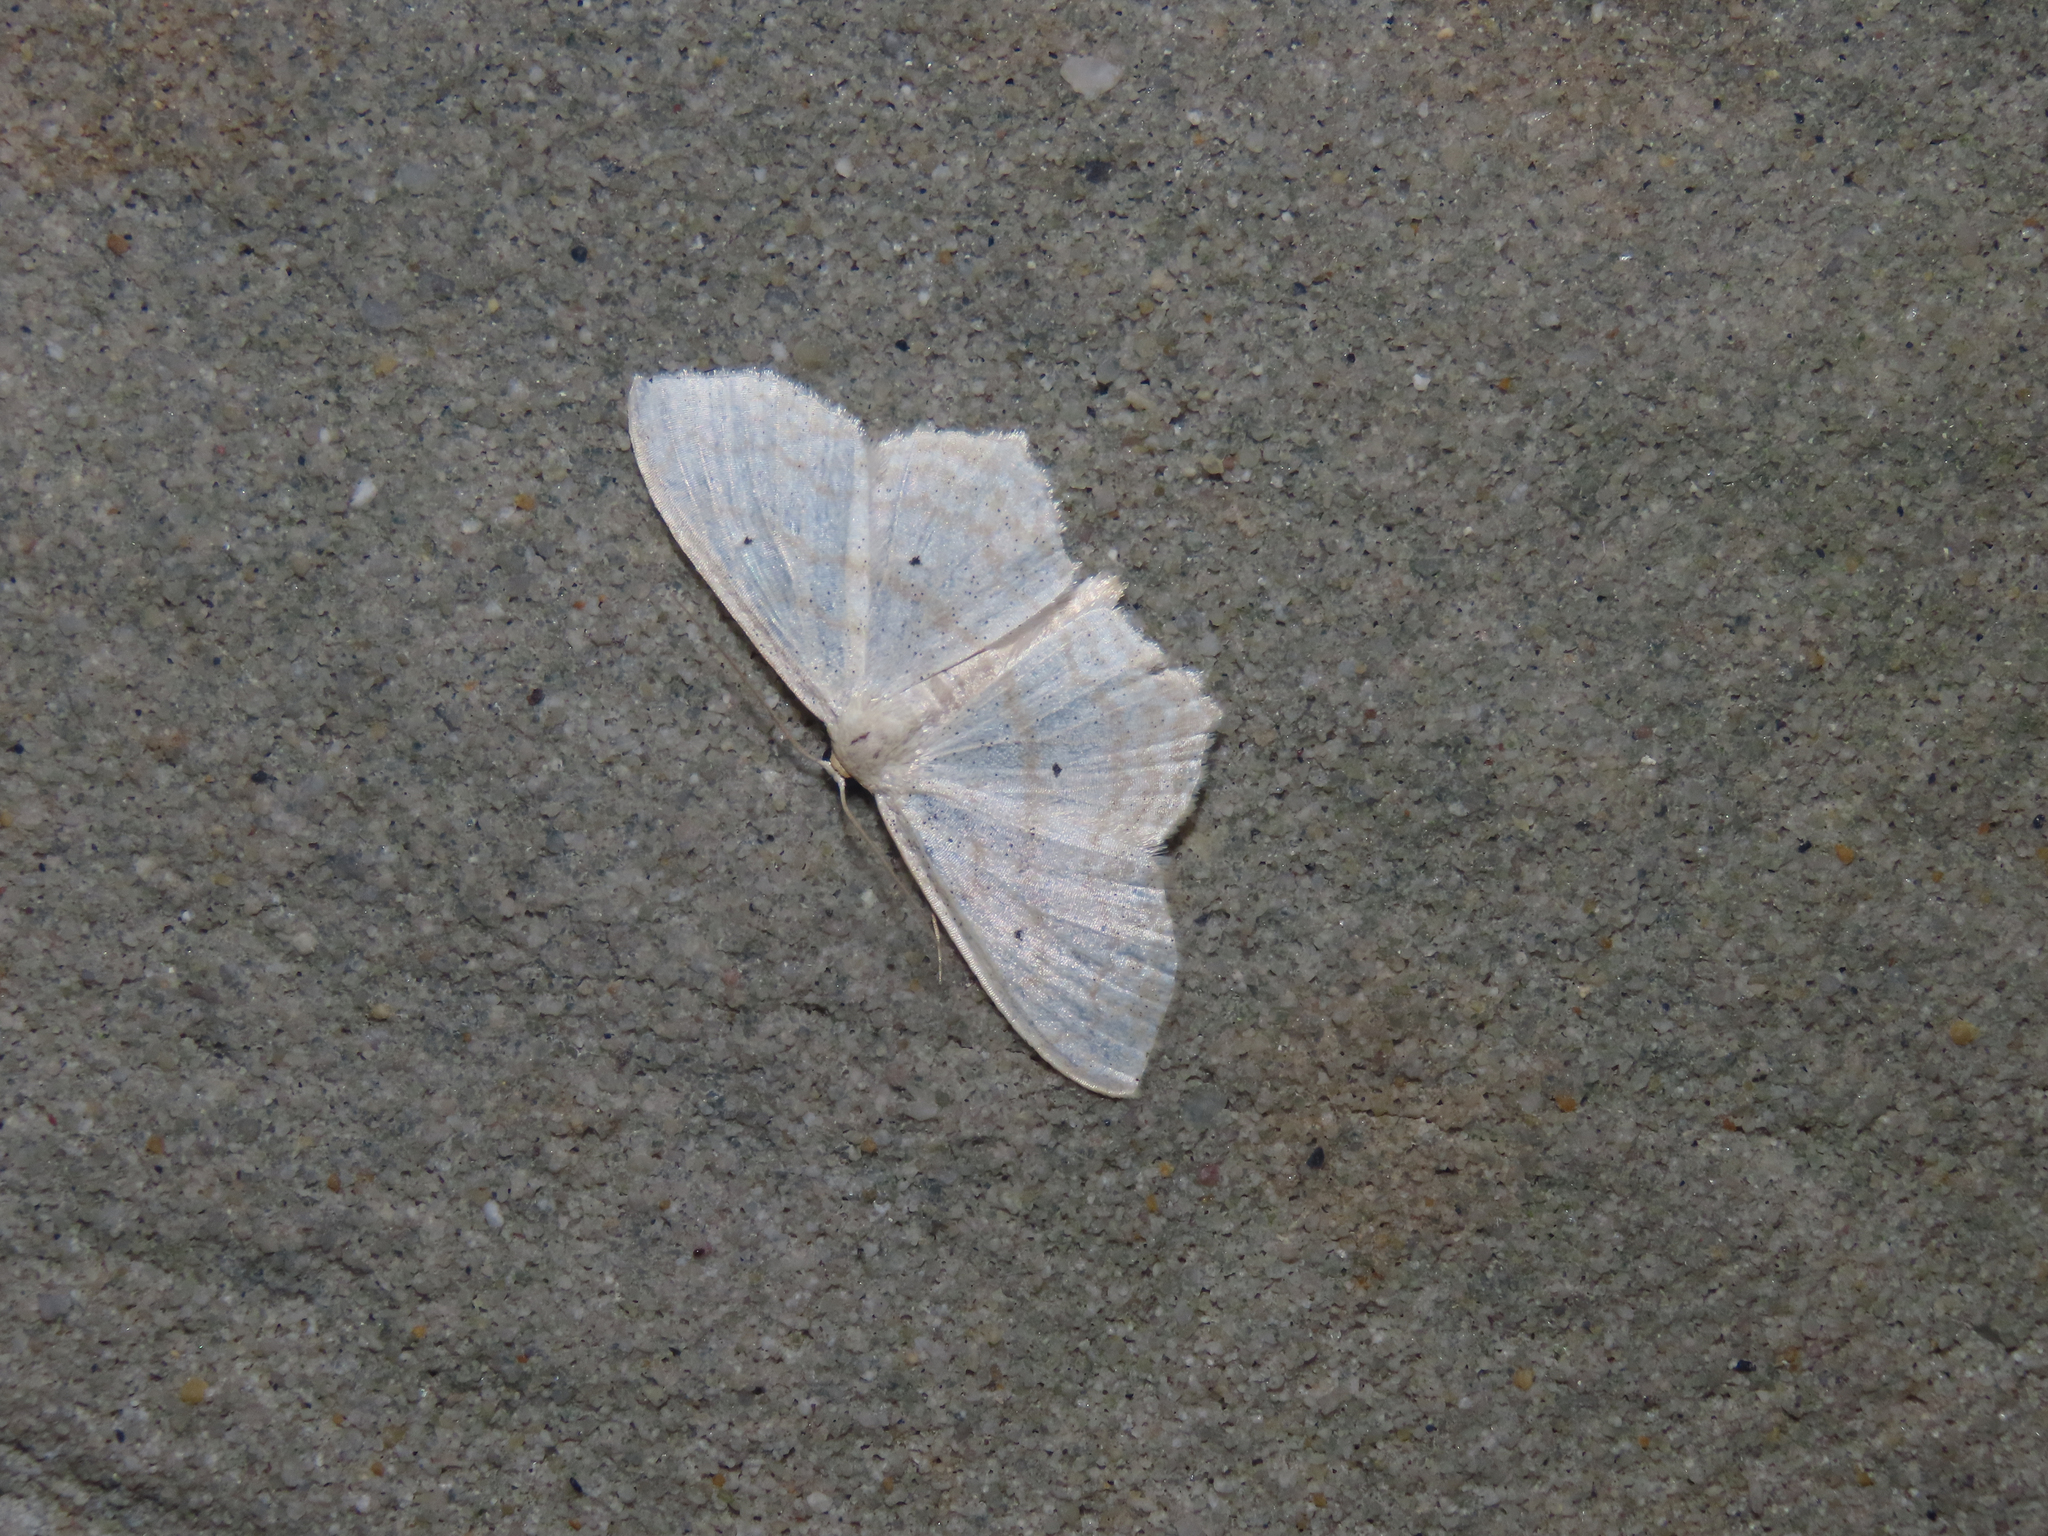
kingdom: Animalia
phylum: Arthropoda
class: Insecta
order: Lepidoptera
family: Geometridae
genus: Scopula
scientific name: Scopula limboundata
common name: Large lace border
